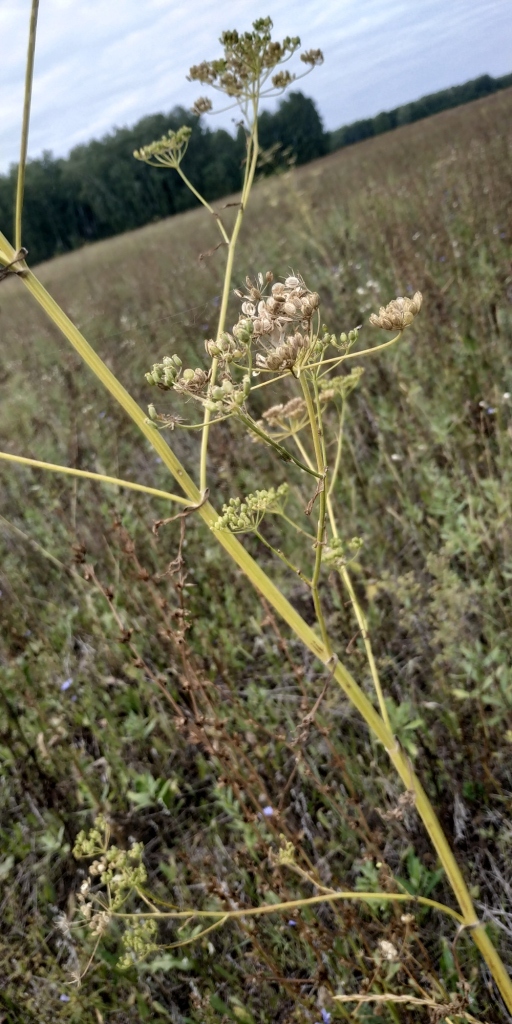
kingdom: Plantae
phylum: Tracheophyta
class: Magnoliopsida
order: Apiales
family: Apiaceae
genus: Pastinaca
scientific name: Pastinaca sativa
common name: Wild parsnip
